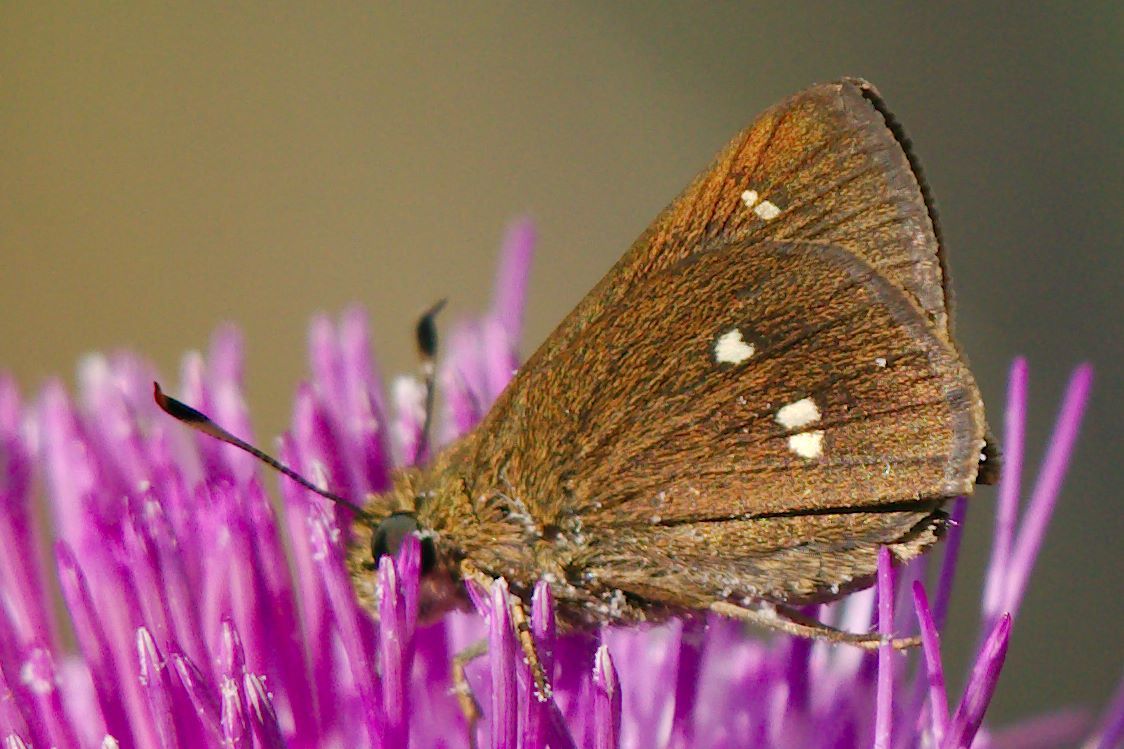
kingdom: Animalia
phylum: Arthropoda
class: Insecta
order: Lepidoptera
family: Hesperiidae
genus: Oligoria
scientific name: Oligoria maculata
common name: Twin-spot skipper
